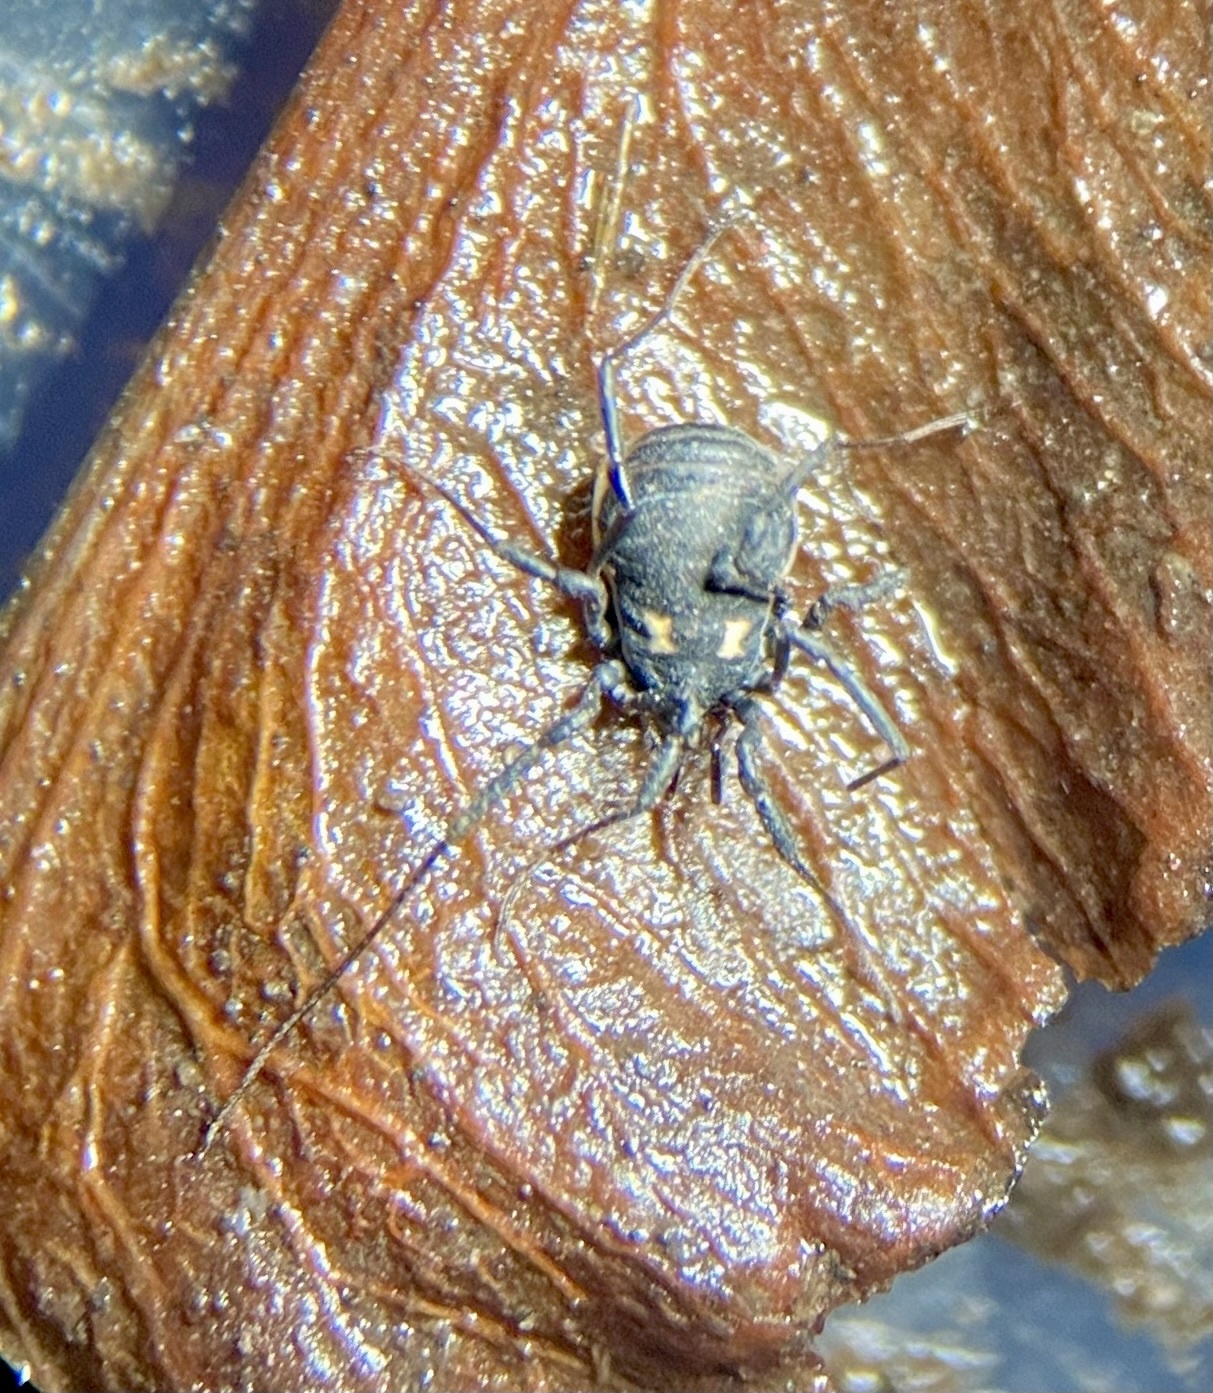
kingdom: Animalia
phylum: Arthropoda
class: Arachnida
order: Opiliones
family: Nemastomatidae
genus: Nemastoma
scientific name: Nemastoma bimaculatum
